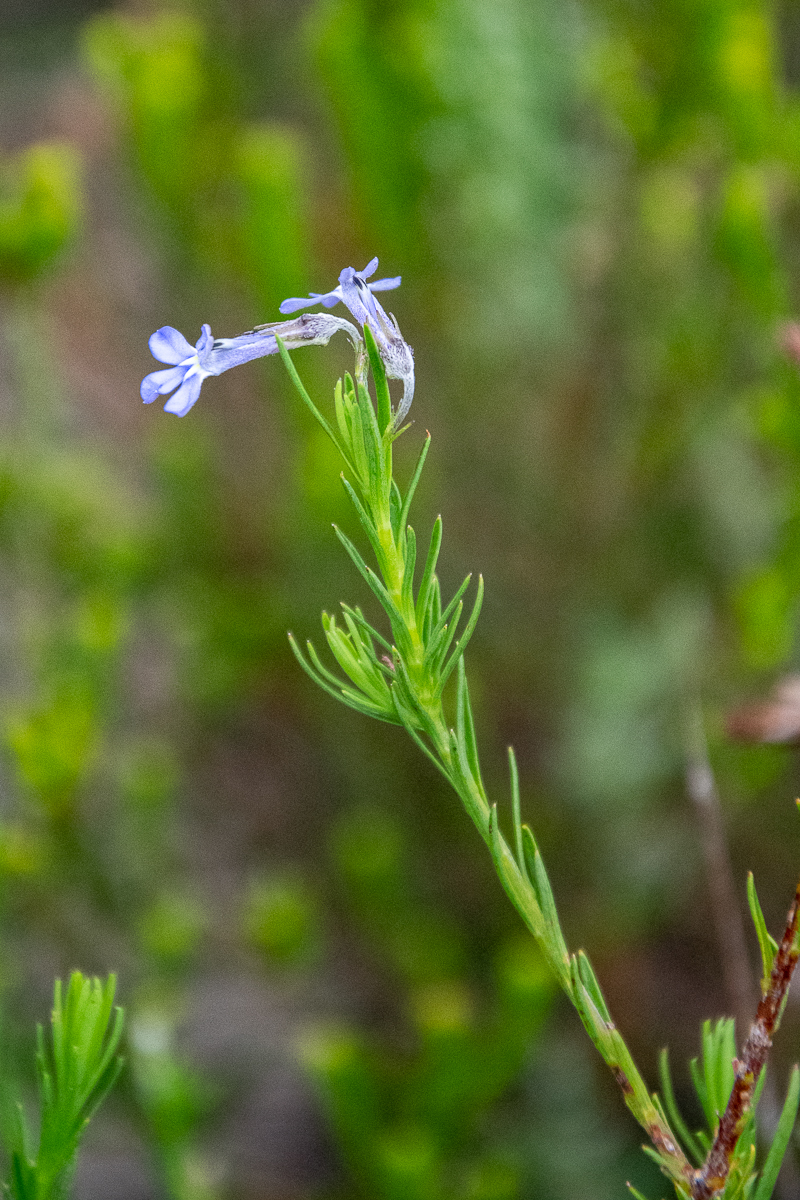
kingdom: Plantae
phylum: Tracheophyta
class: Magnoliopsida
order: Asterales
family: Campanulaceae
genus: Lobelia
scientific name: Lobelia pinifolia
